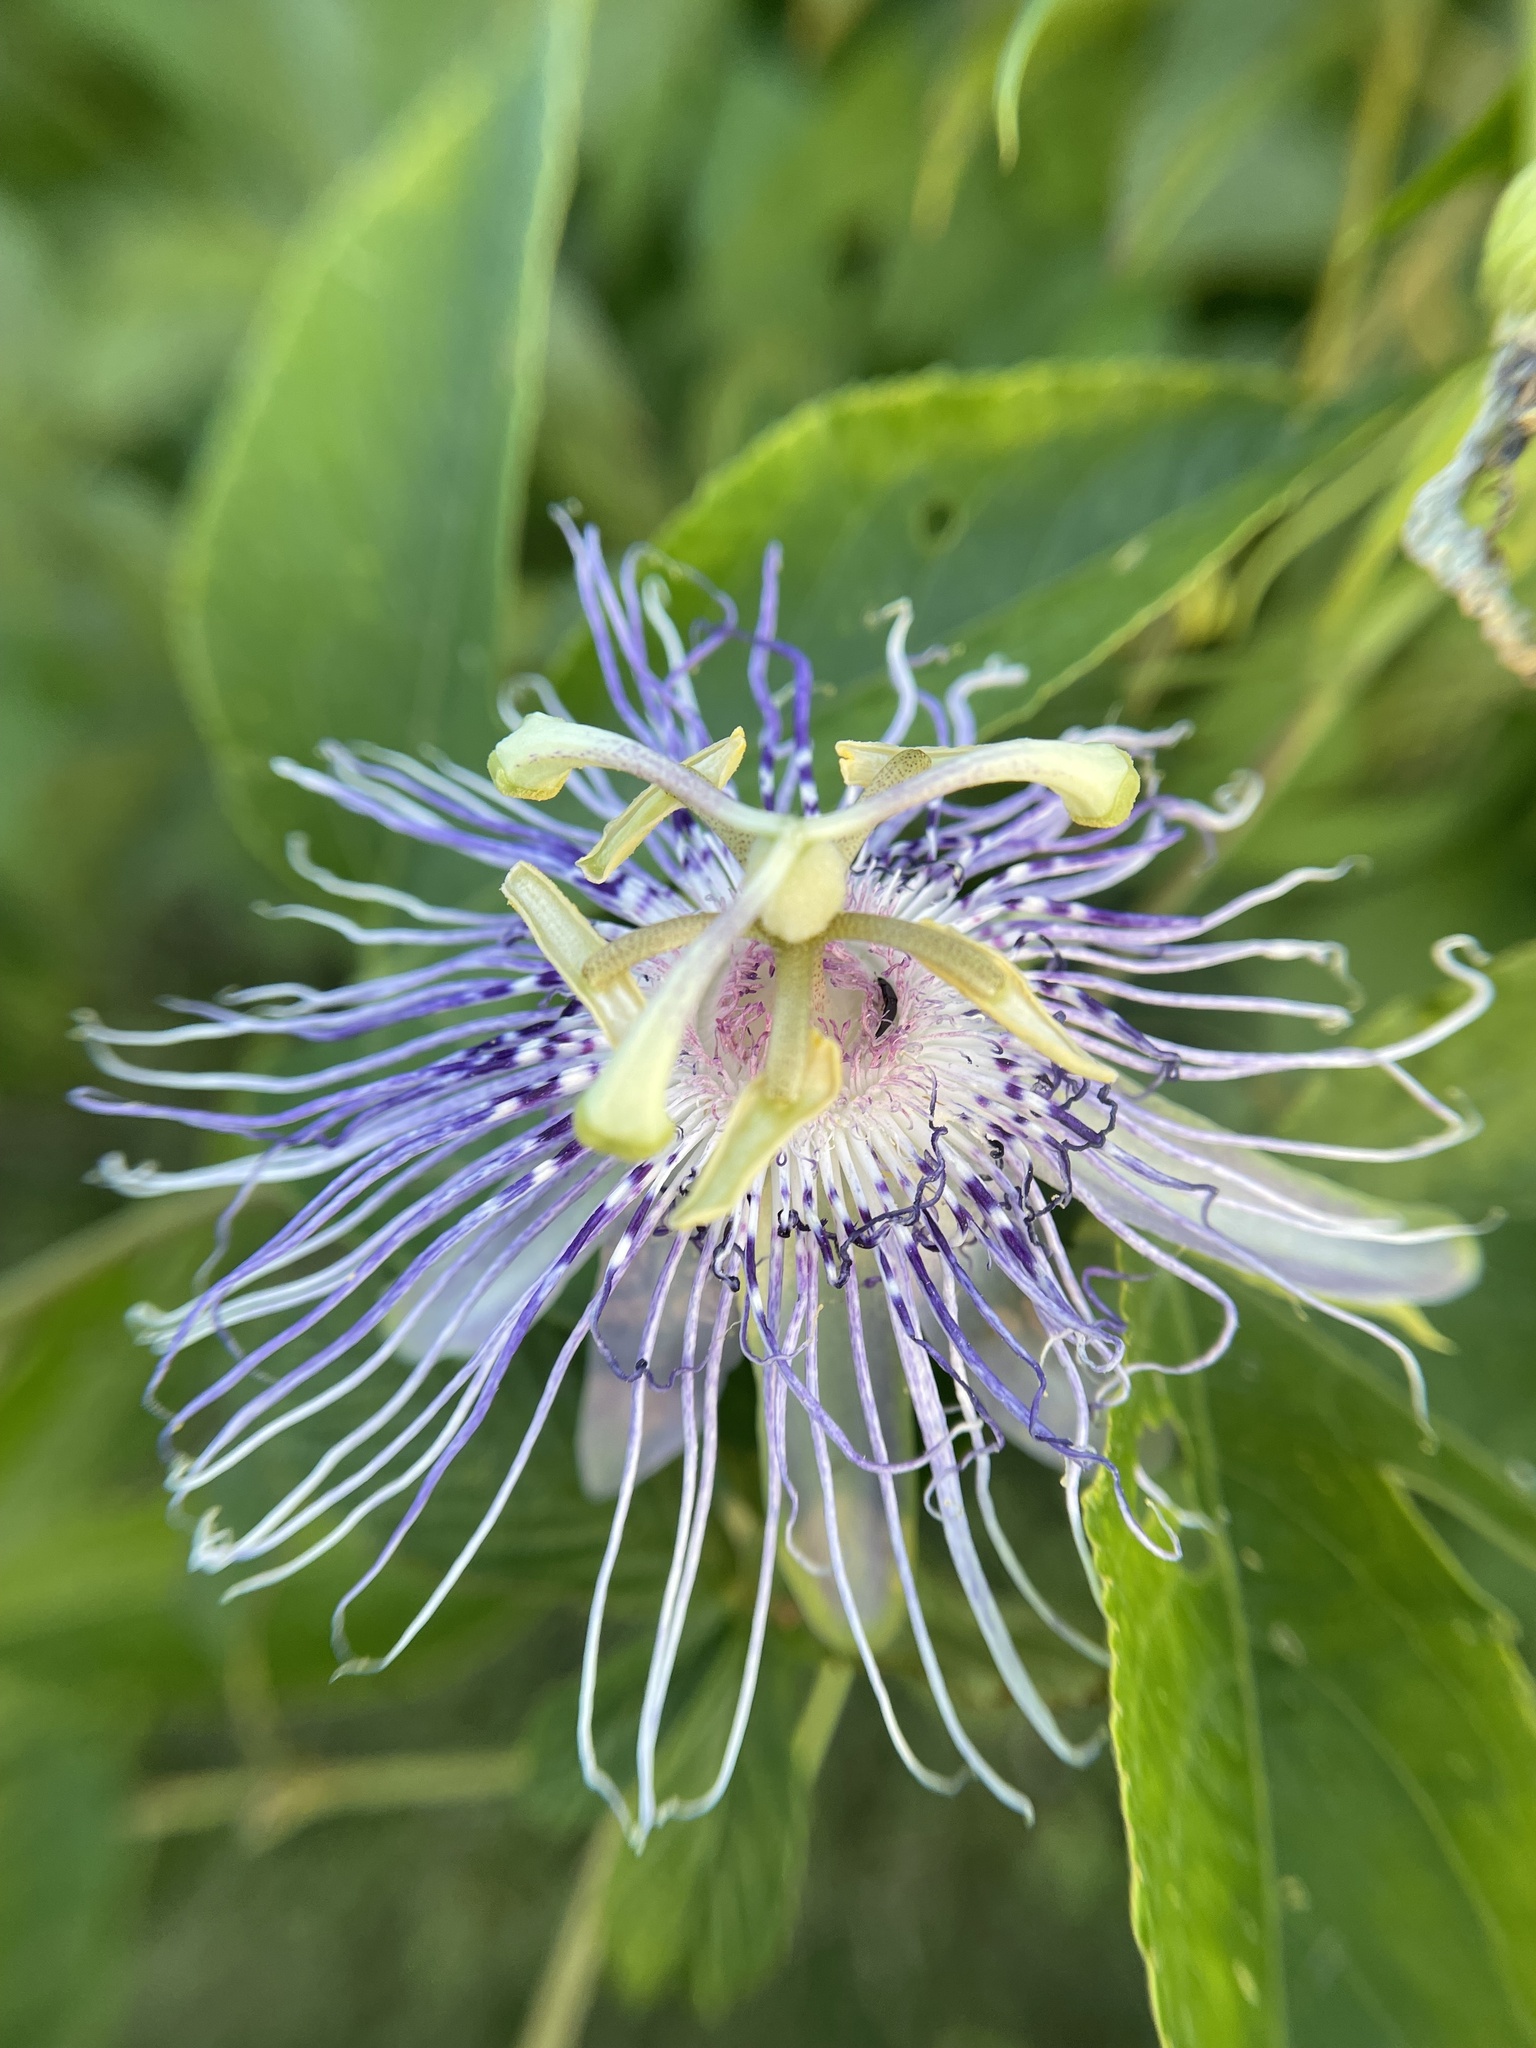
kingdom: Plantae
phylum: Tracheophyta
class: Magnoliopsida
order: Malpighiales
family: Passifloraceae
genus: Passiflora
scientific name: Passiflora incarnata
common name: Apricot-vine
